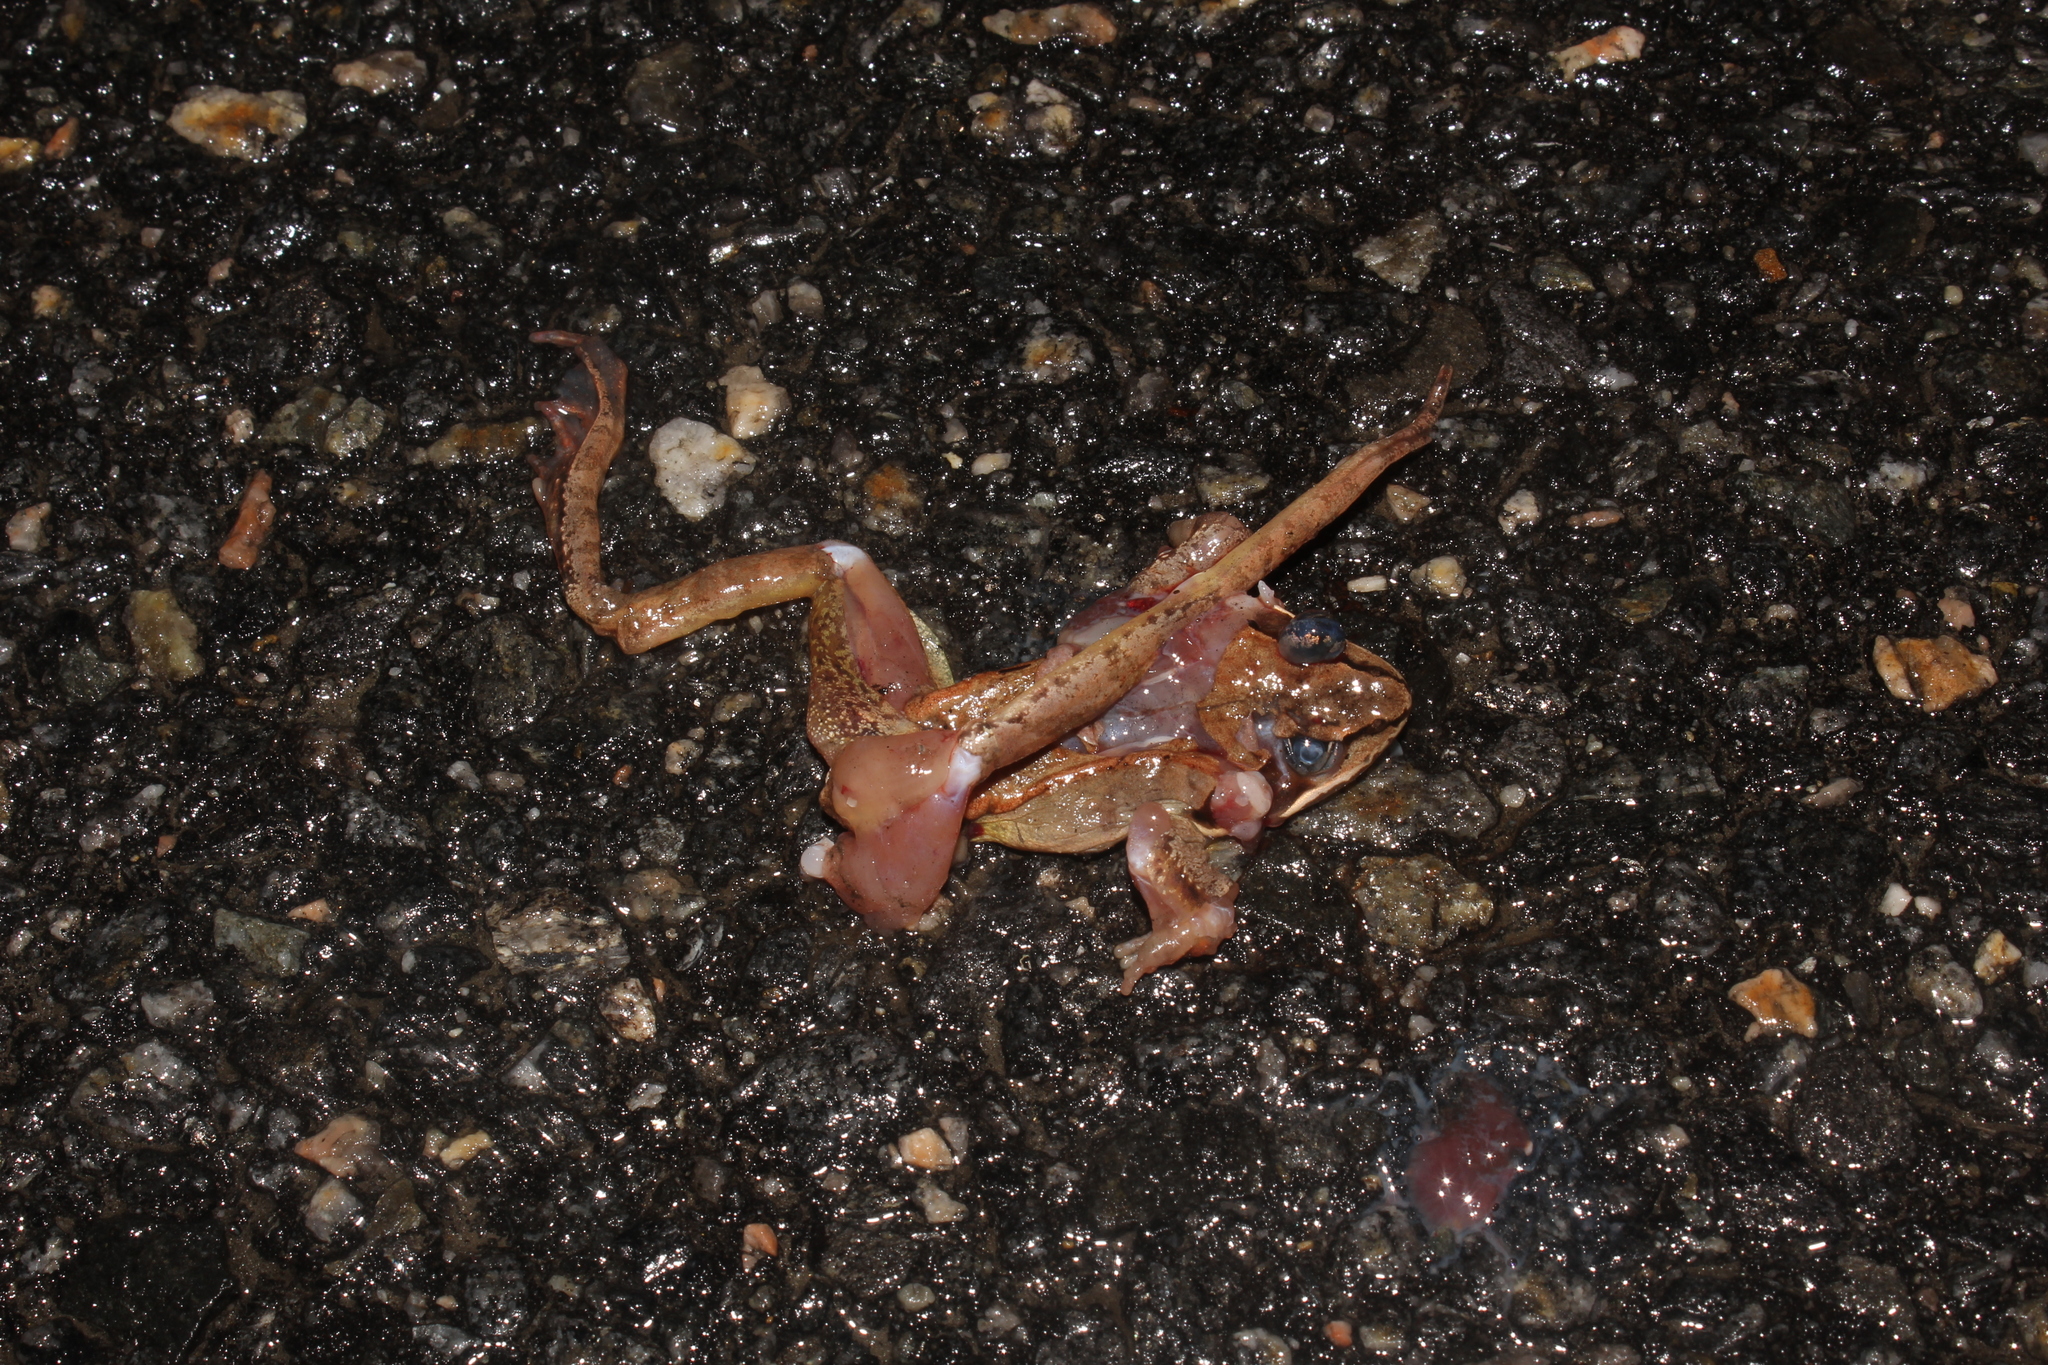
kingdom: Animalia
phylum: Chordata
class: Amphibia
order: Anura
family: Ranidae
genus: Lithobates
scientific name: Lithobates sylvaticus
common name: Wood frog
